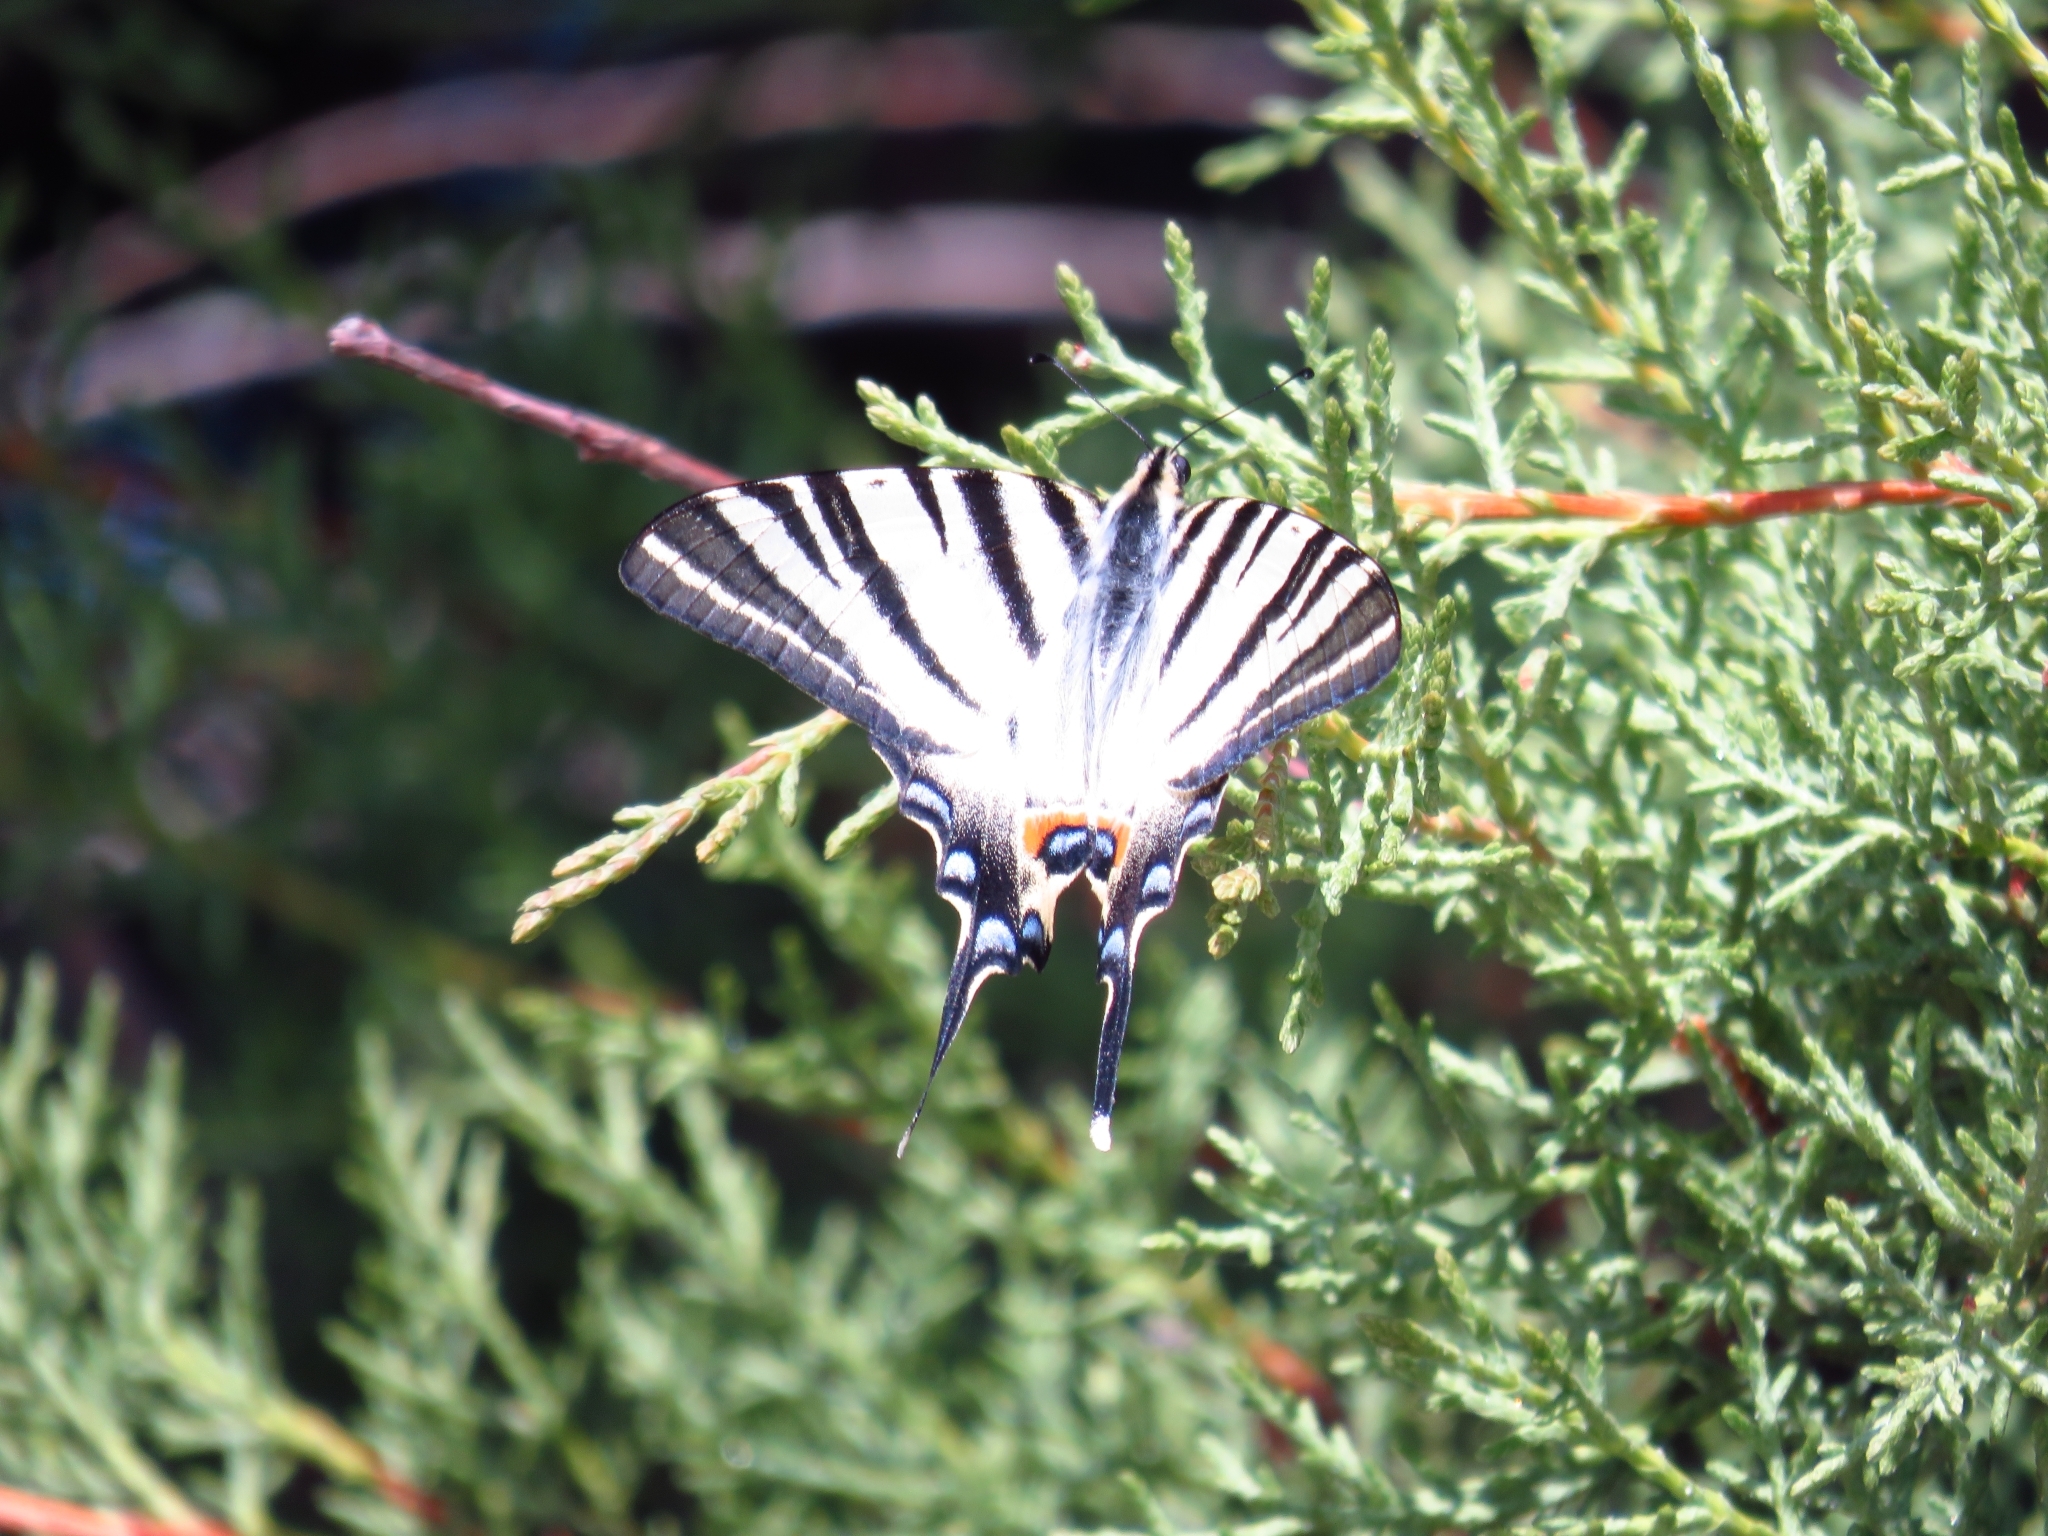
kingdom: Animalia
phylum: Arthropoda
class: Insecta
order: Lepidoptera
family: Papilionidae
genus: Iphiclides
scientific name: Iphiclides podalirius
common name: Scarce swallowtail
